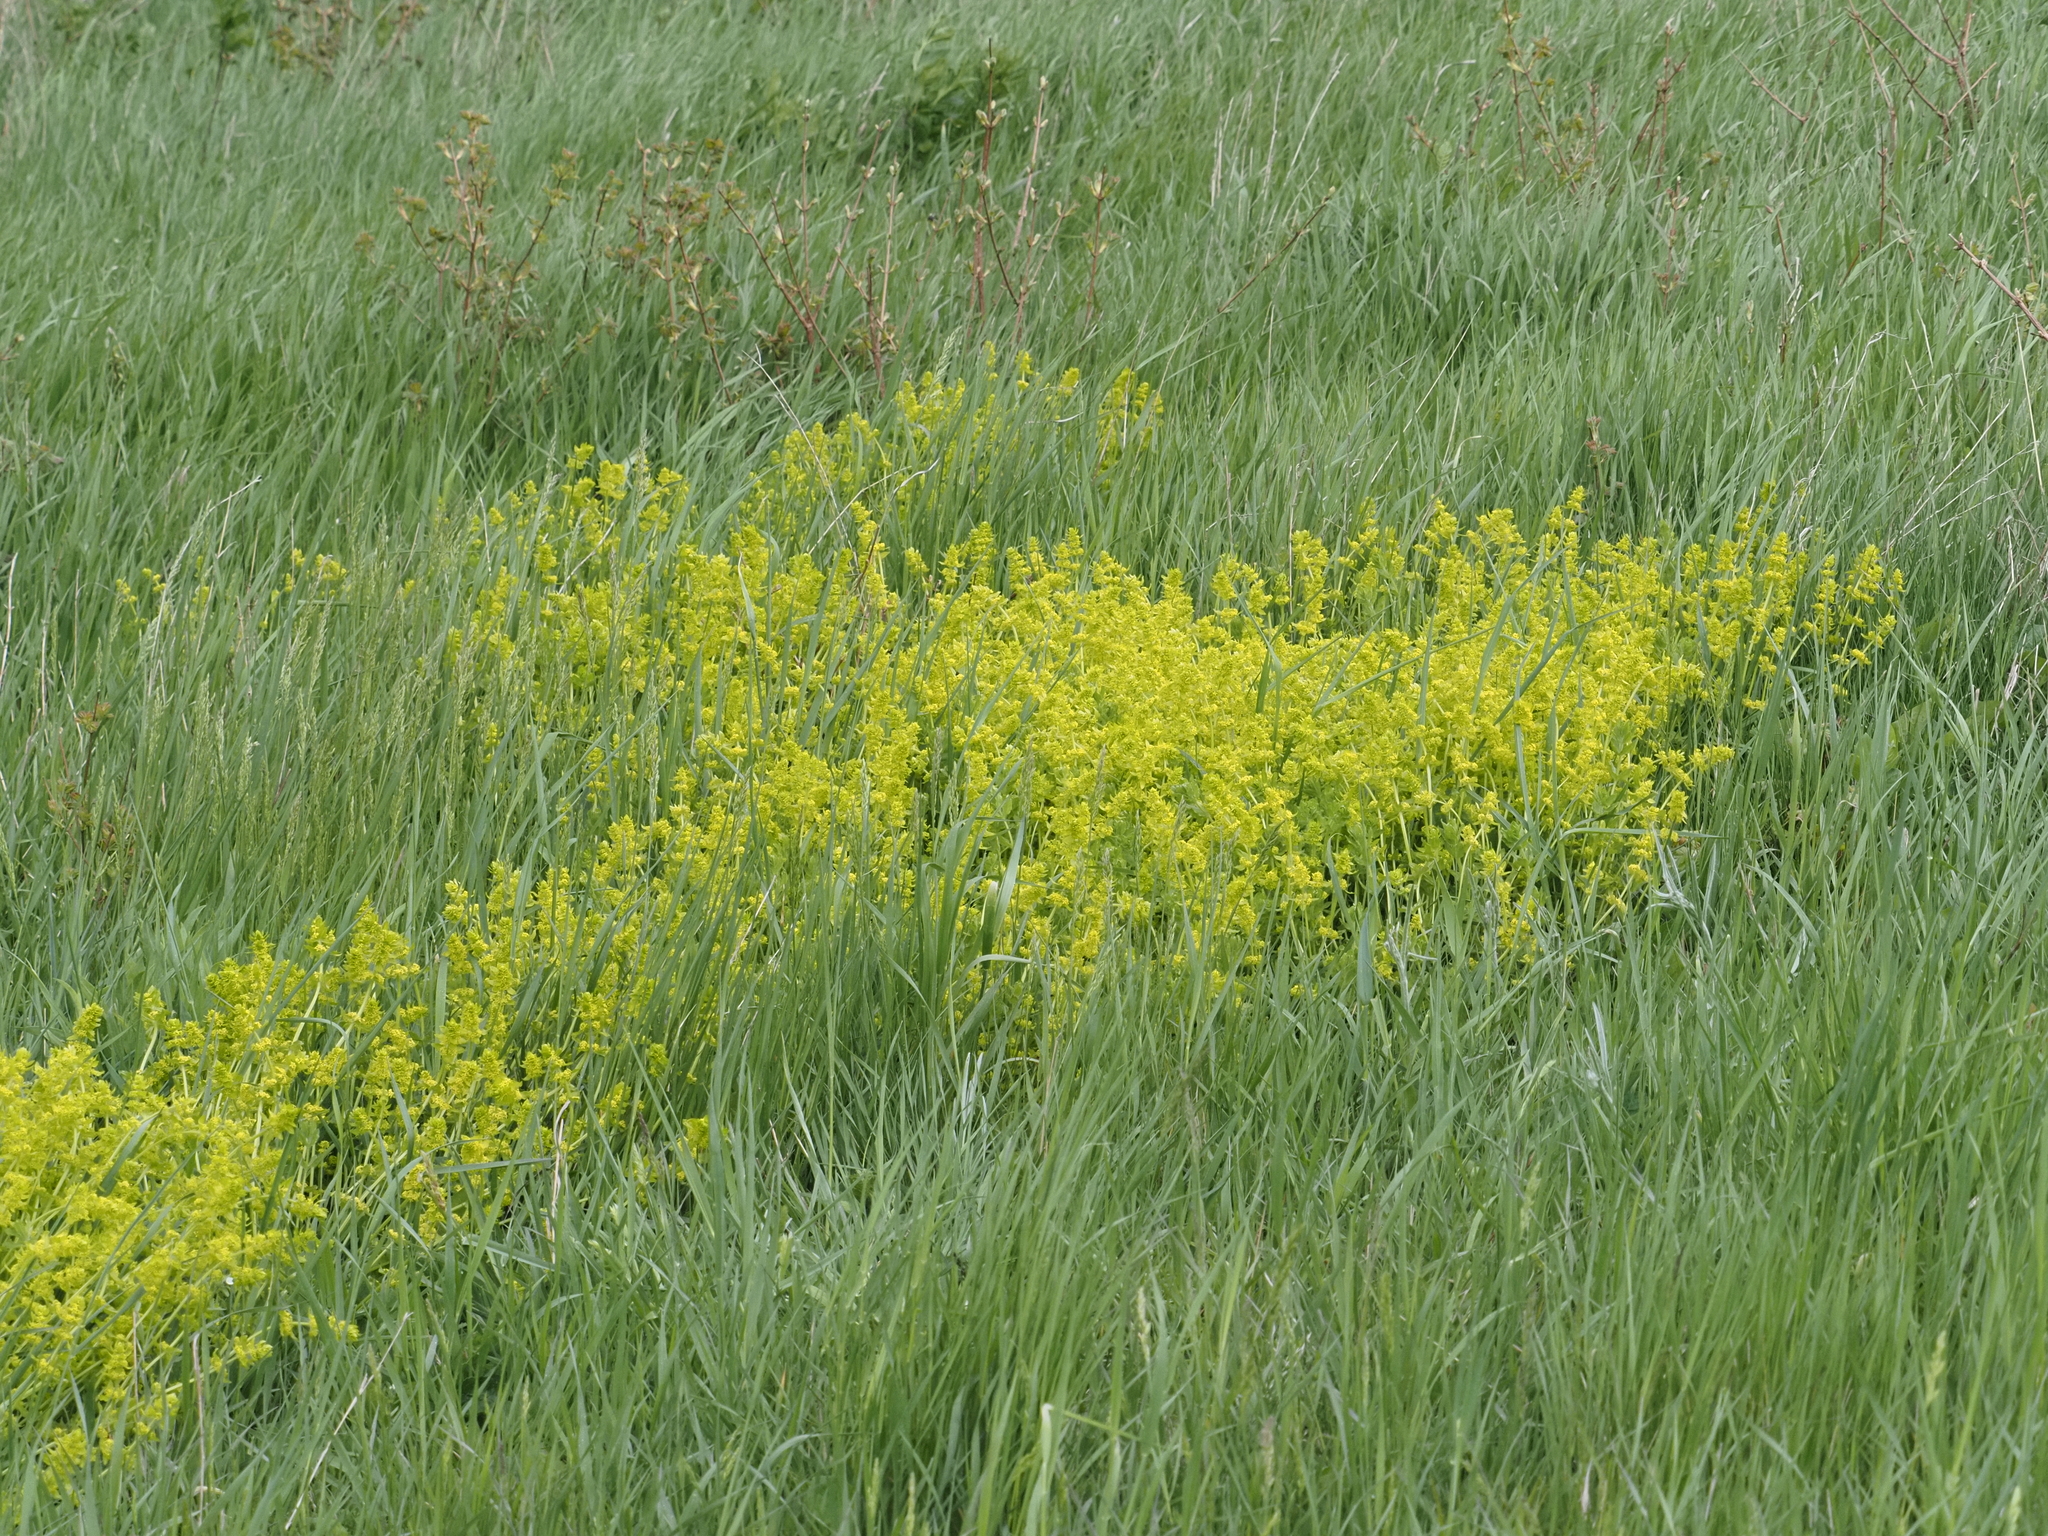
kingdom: Plantae
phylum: Tracheophyta
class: Magnoliopsida
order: Gentianales
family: Rubiaceae
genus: Cruciata
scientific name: Cruciata laevipes
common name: Crosswort
